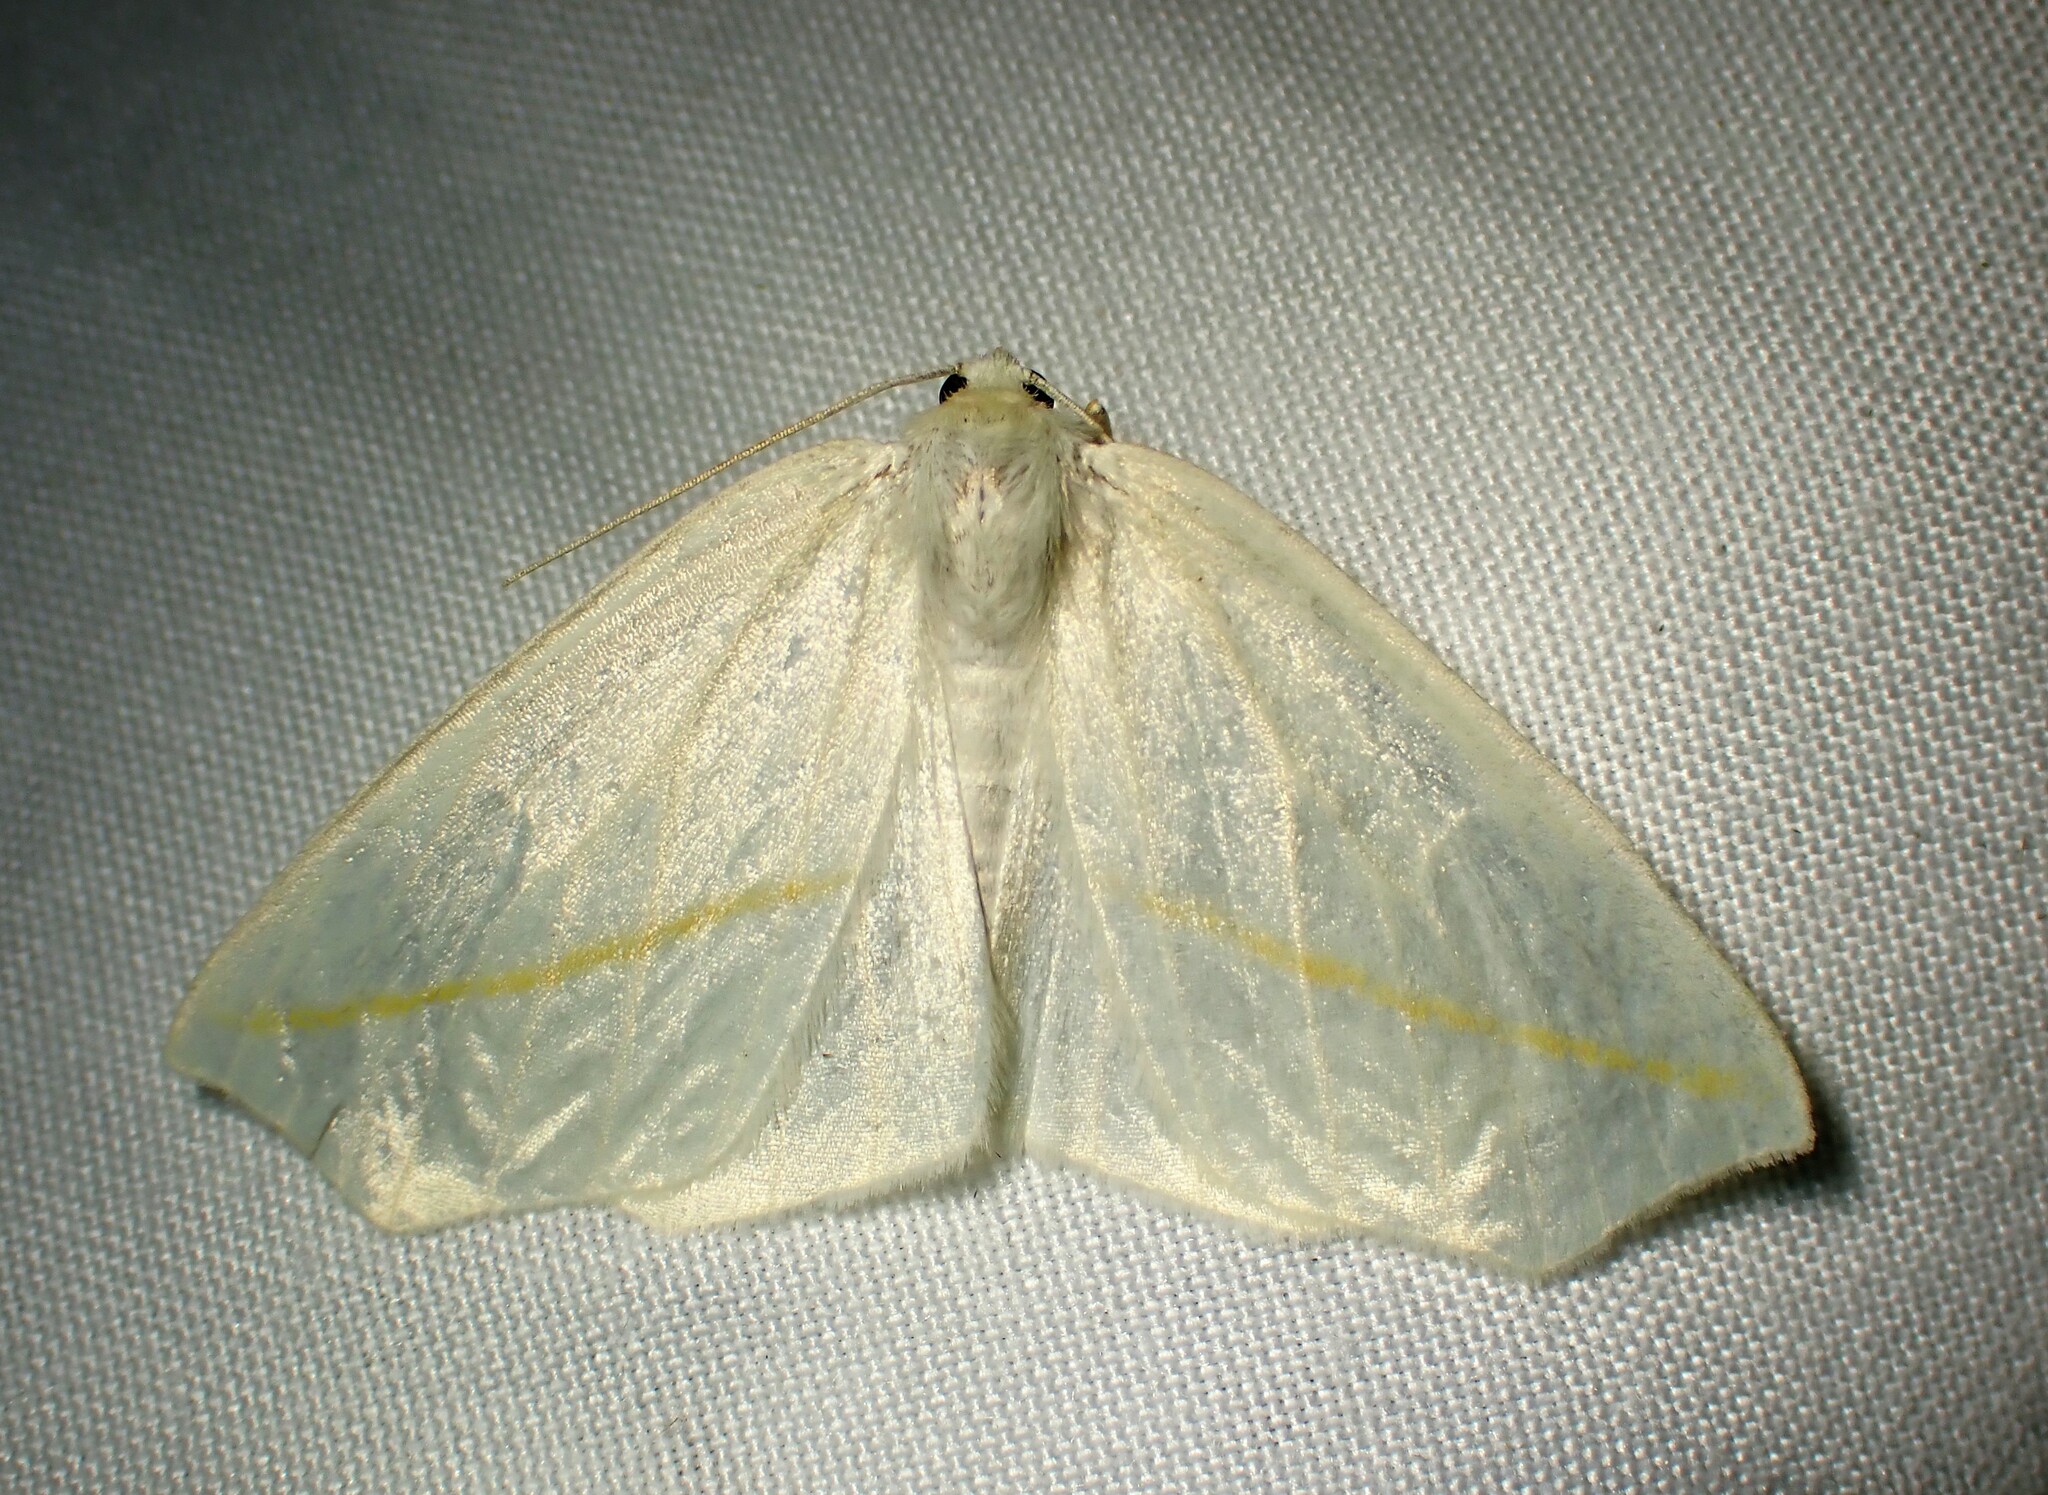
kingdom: Animalia
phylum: Arthropoda
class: Insecta
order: Lepidoptera
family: Geometridae
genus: Tetracis
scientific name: Tetracis cachexiata
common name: White slant-line
